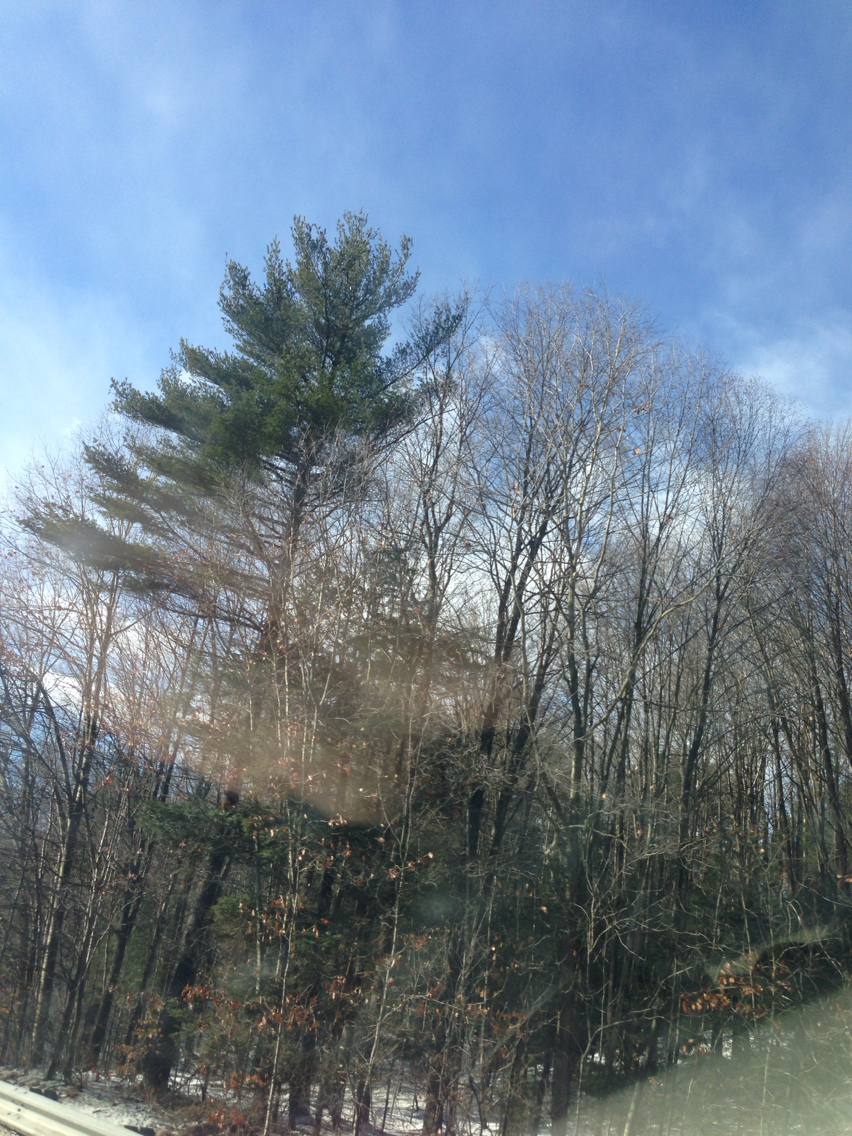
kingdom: Plantae
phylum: Tracheophyta
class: Pinopsida
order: Pinales
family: Pinaceae
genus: Pinus
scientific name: Pinus strobus
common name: Weymouth pine
